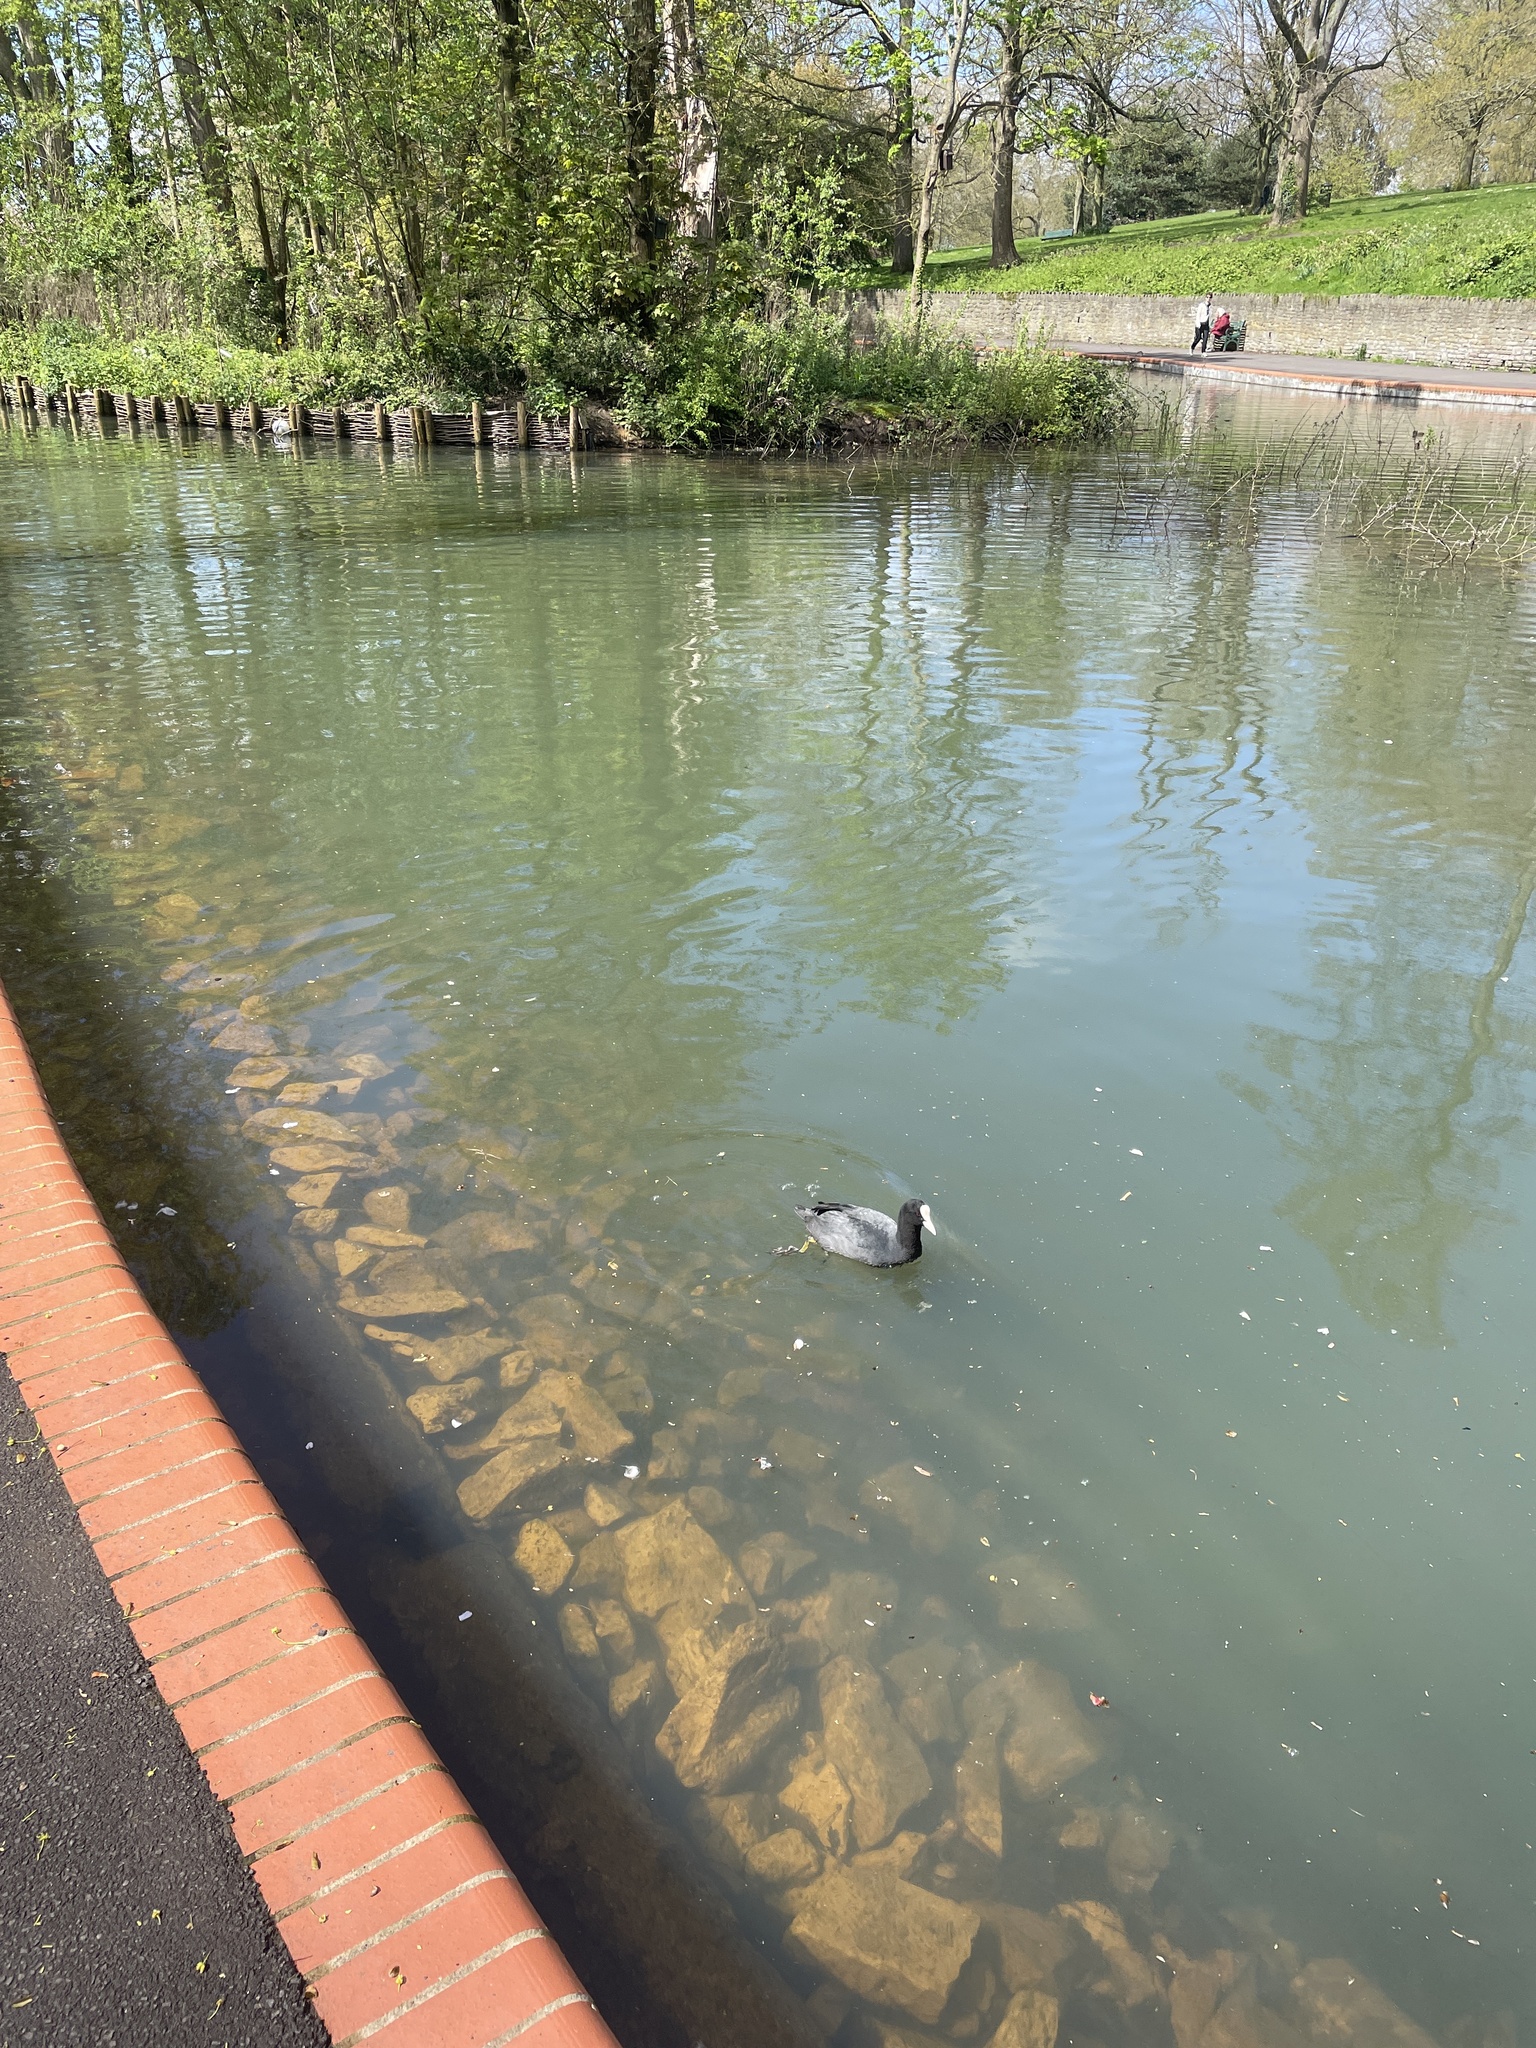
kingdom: Animalia
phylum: Chordata
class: Aves
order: Gruiformes
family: Rallidae
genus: Fulica
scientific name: Fulica atra
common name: Eurasian coot
